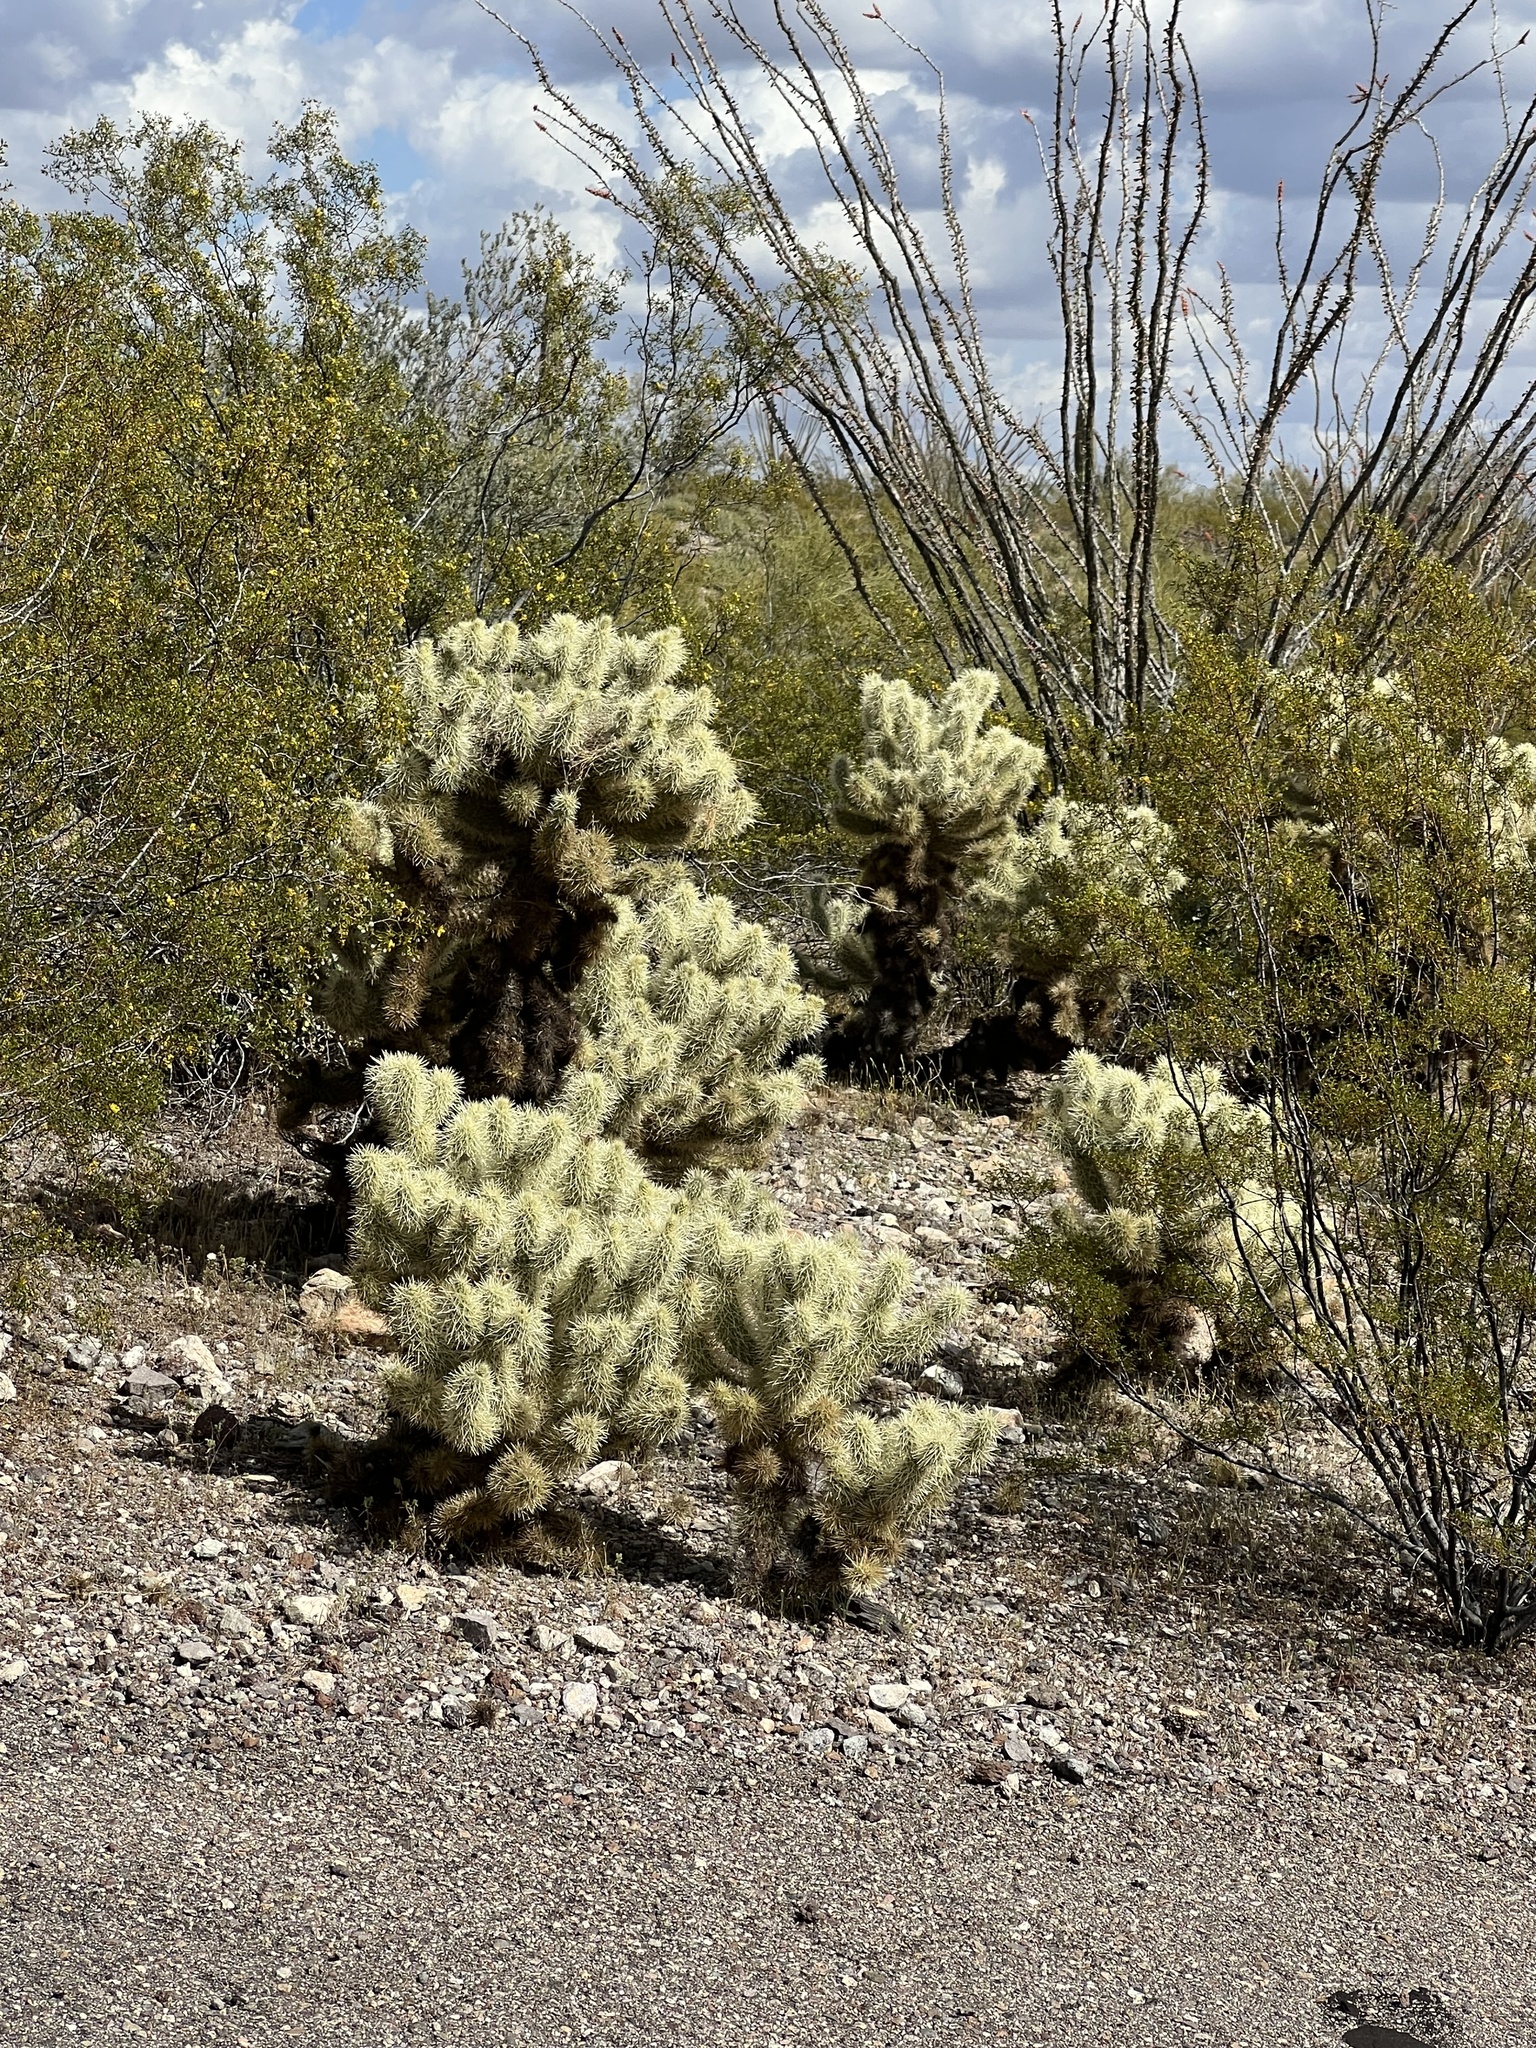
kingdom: Plantae
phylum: Tracheophyta
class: Magnoliopsida
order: Caryophyllales
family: Cactaceae
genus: Cylindropuntia
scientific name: Cylindropuntia fosbergii
